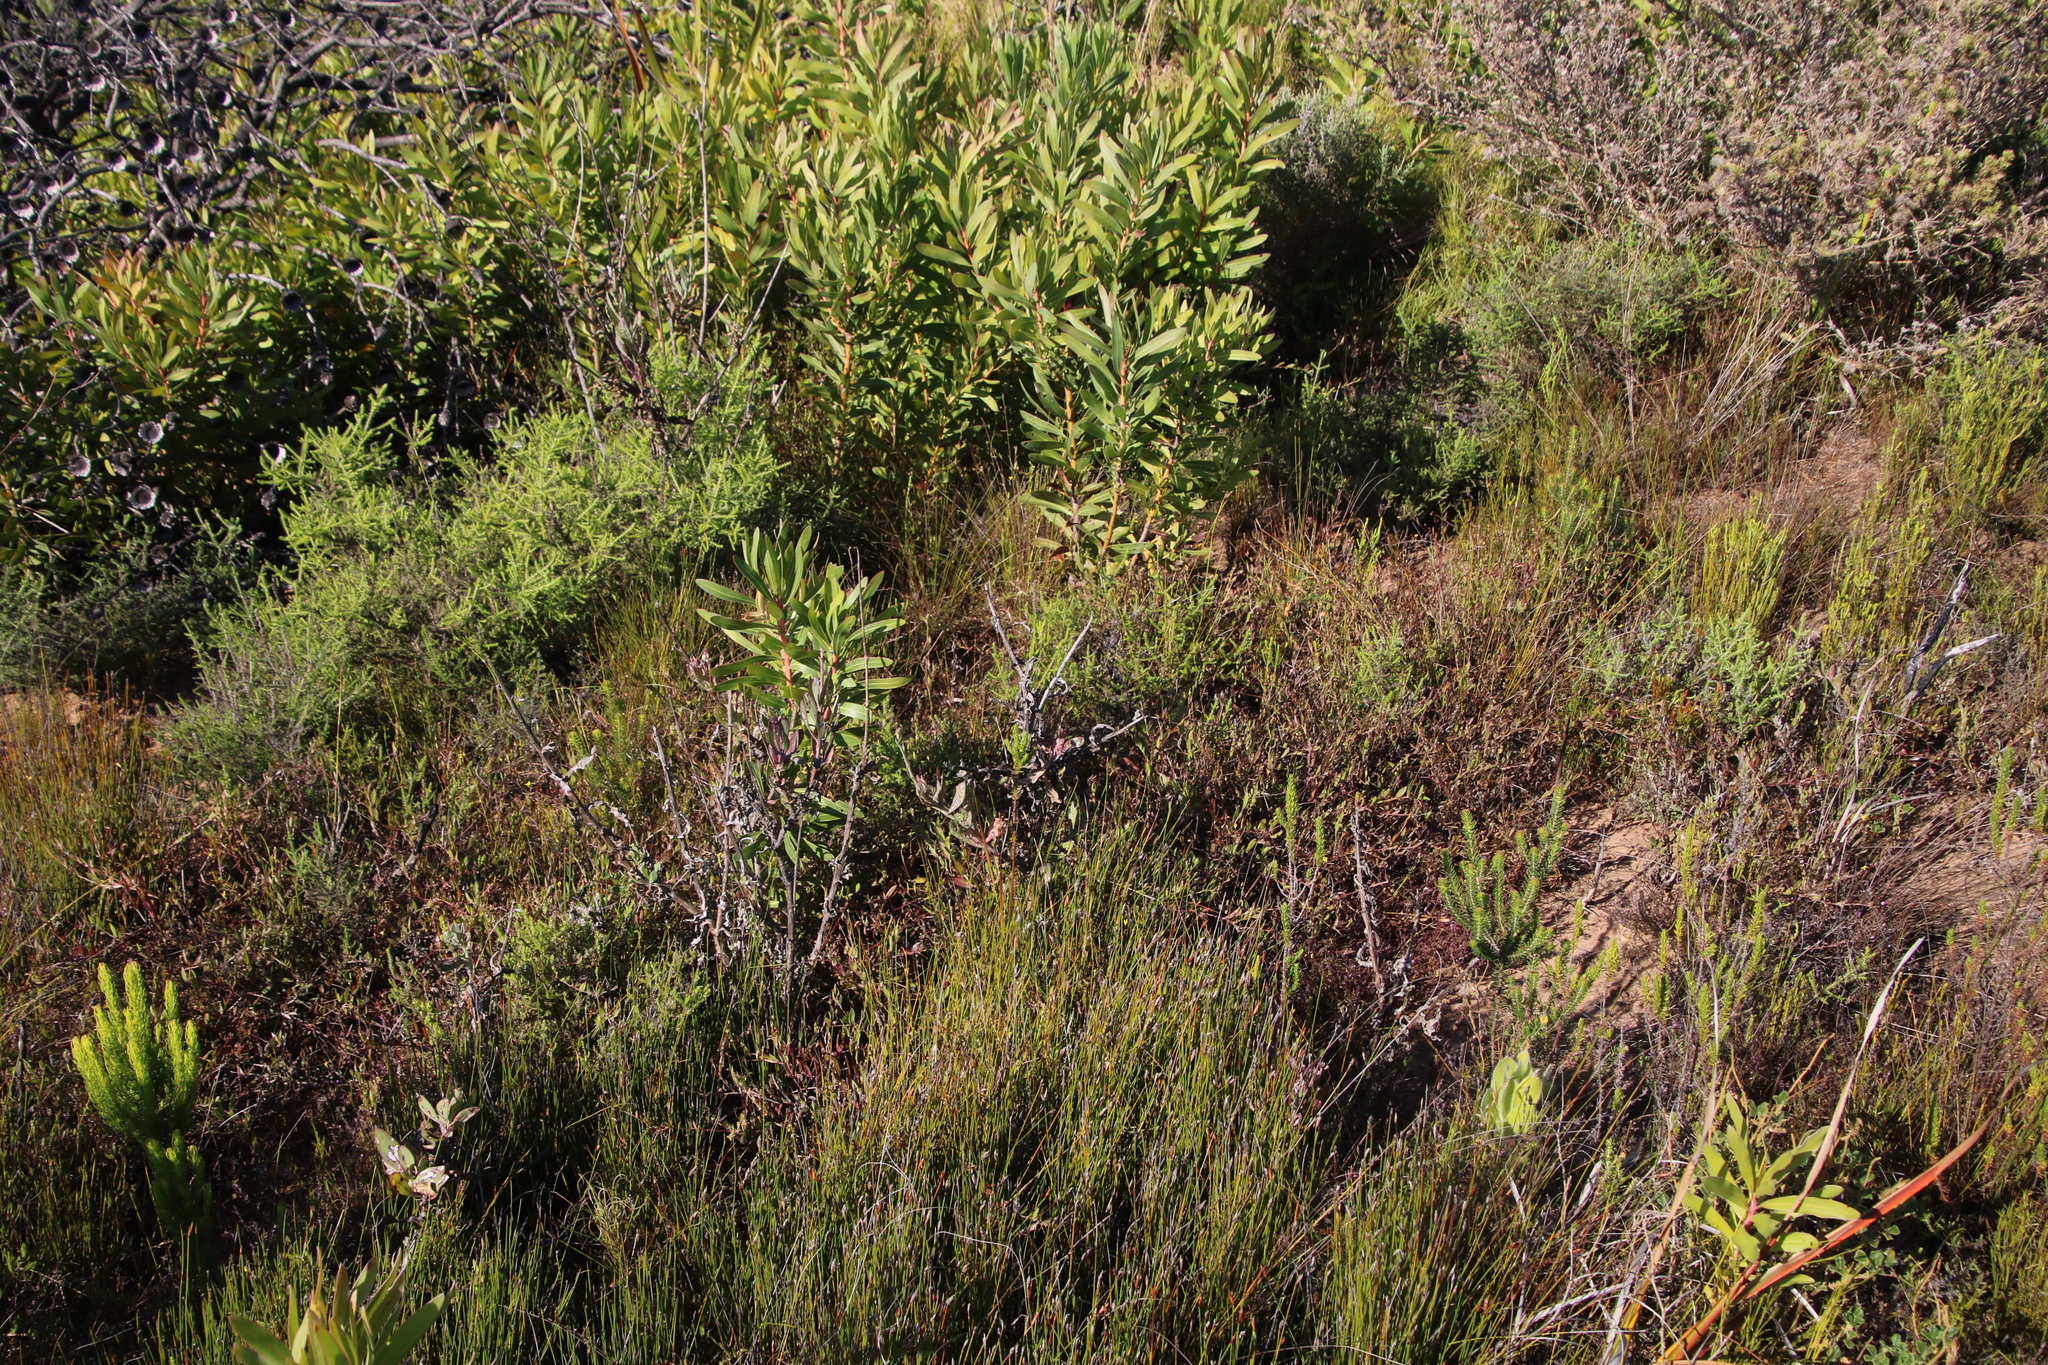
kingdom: Plantae
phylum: Tracheophyta
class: Magnoliopsida
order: Proteales
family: Proteaceae
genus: Protea
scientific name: Protea lepidocarpodendron
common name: Black-bearded protea
